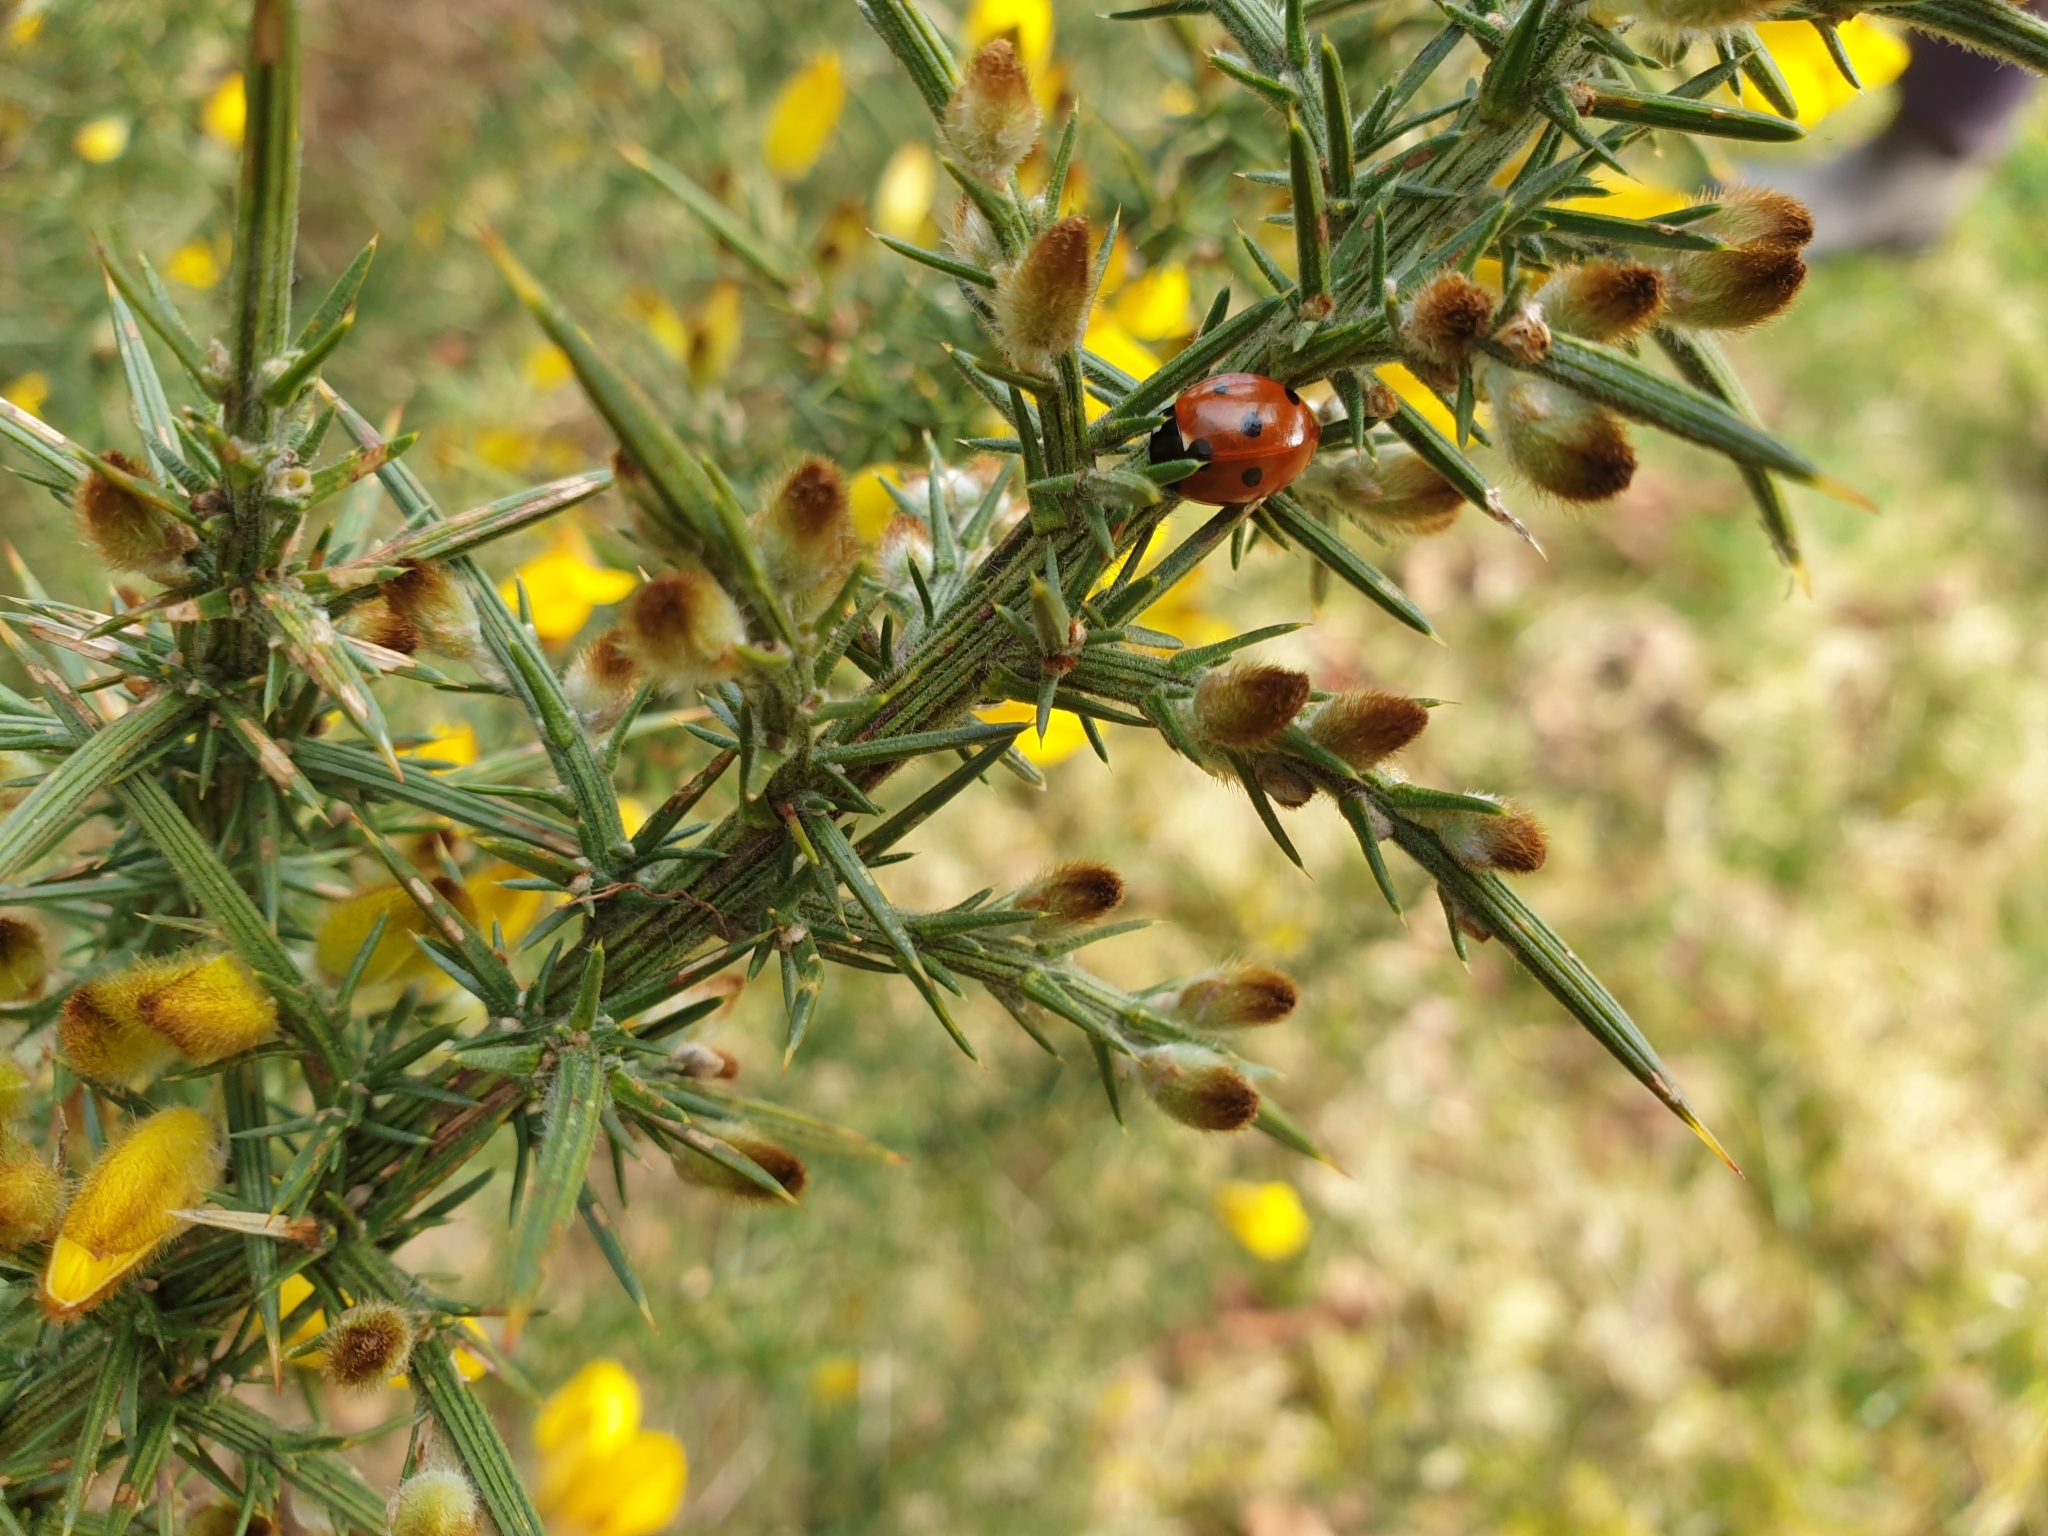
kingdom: Animalia
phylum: Arthropoda
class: Insecta
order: Coleoptera
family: Coccinellidae
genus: Coccinella
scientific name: Coccinella septempunctata
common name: Sevenspotted lady beetle
